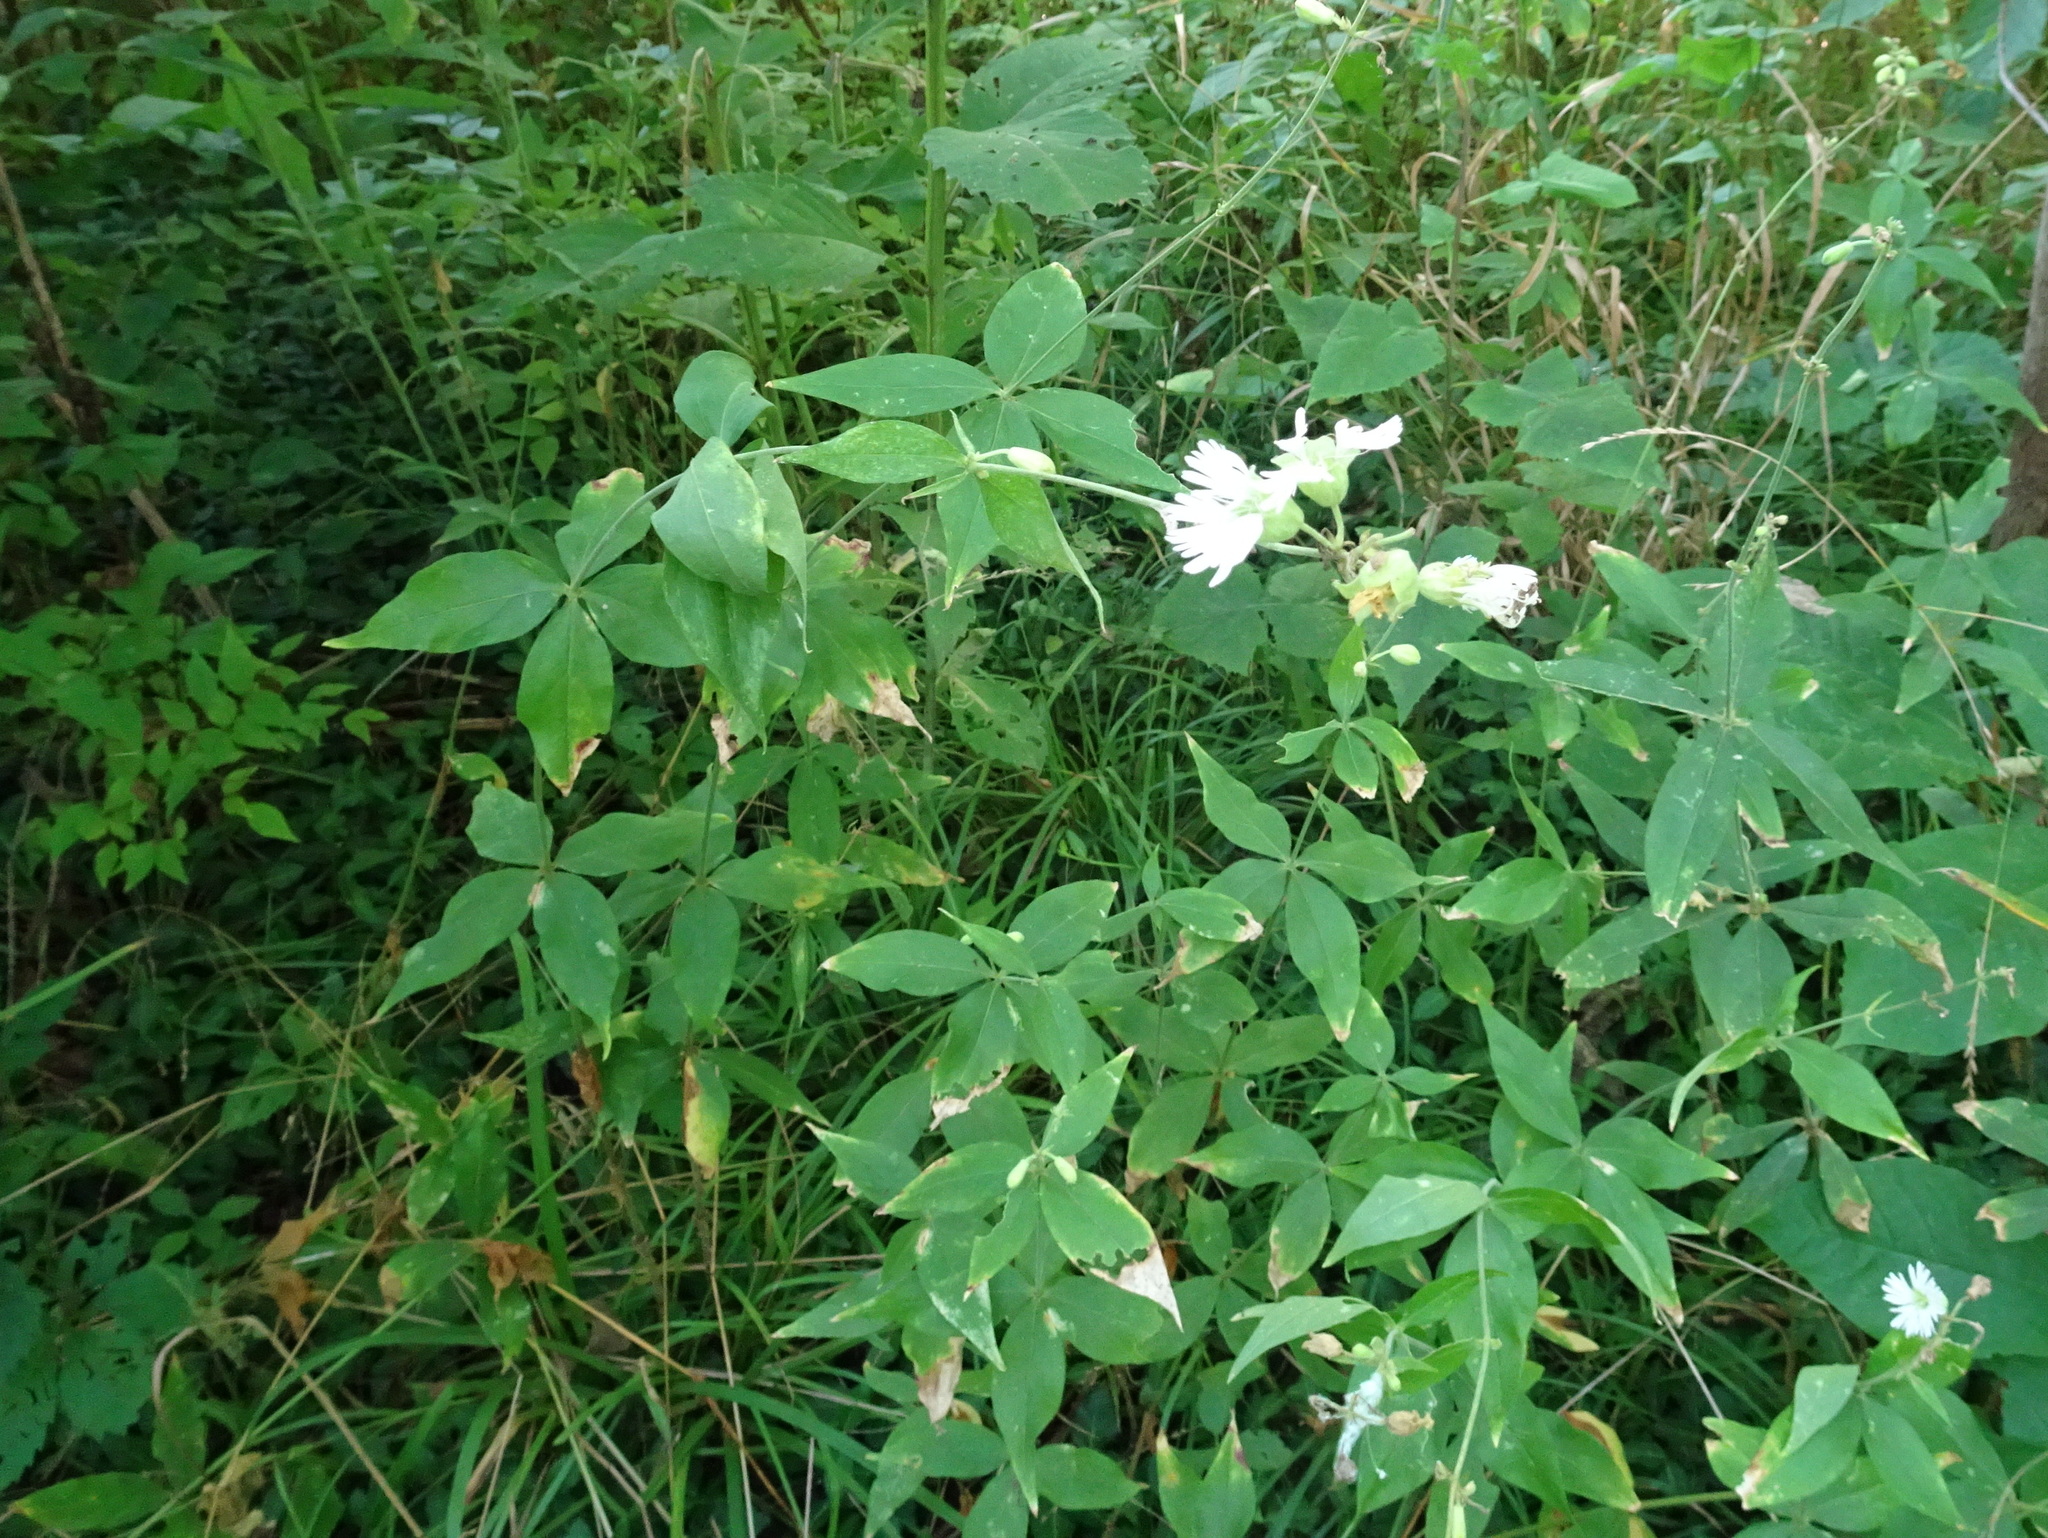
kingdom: Plantae
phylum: Tracheophyta
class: Magnoliopsida
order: Caryophyllales
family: Caryophyllaceae
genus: Silene
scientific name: Silene stellata
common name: Starry campion
